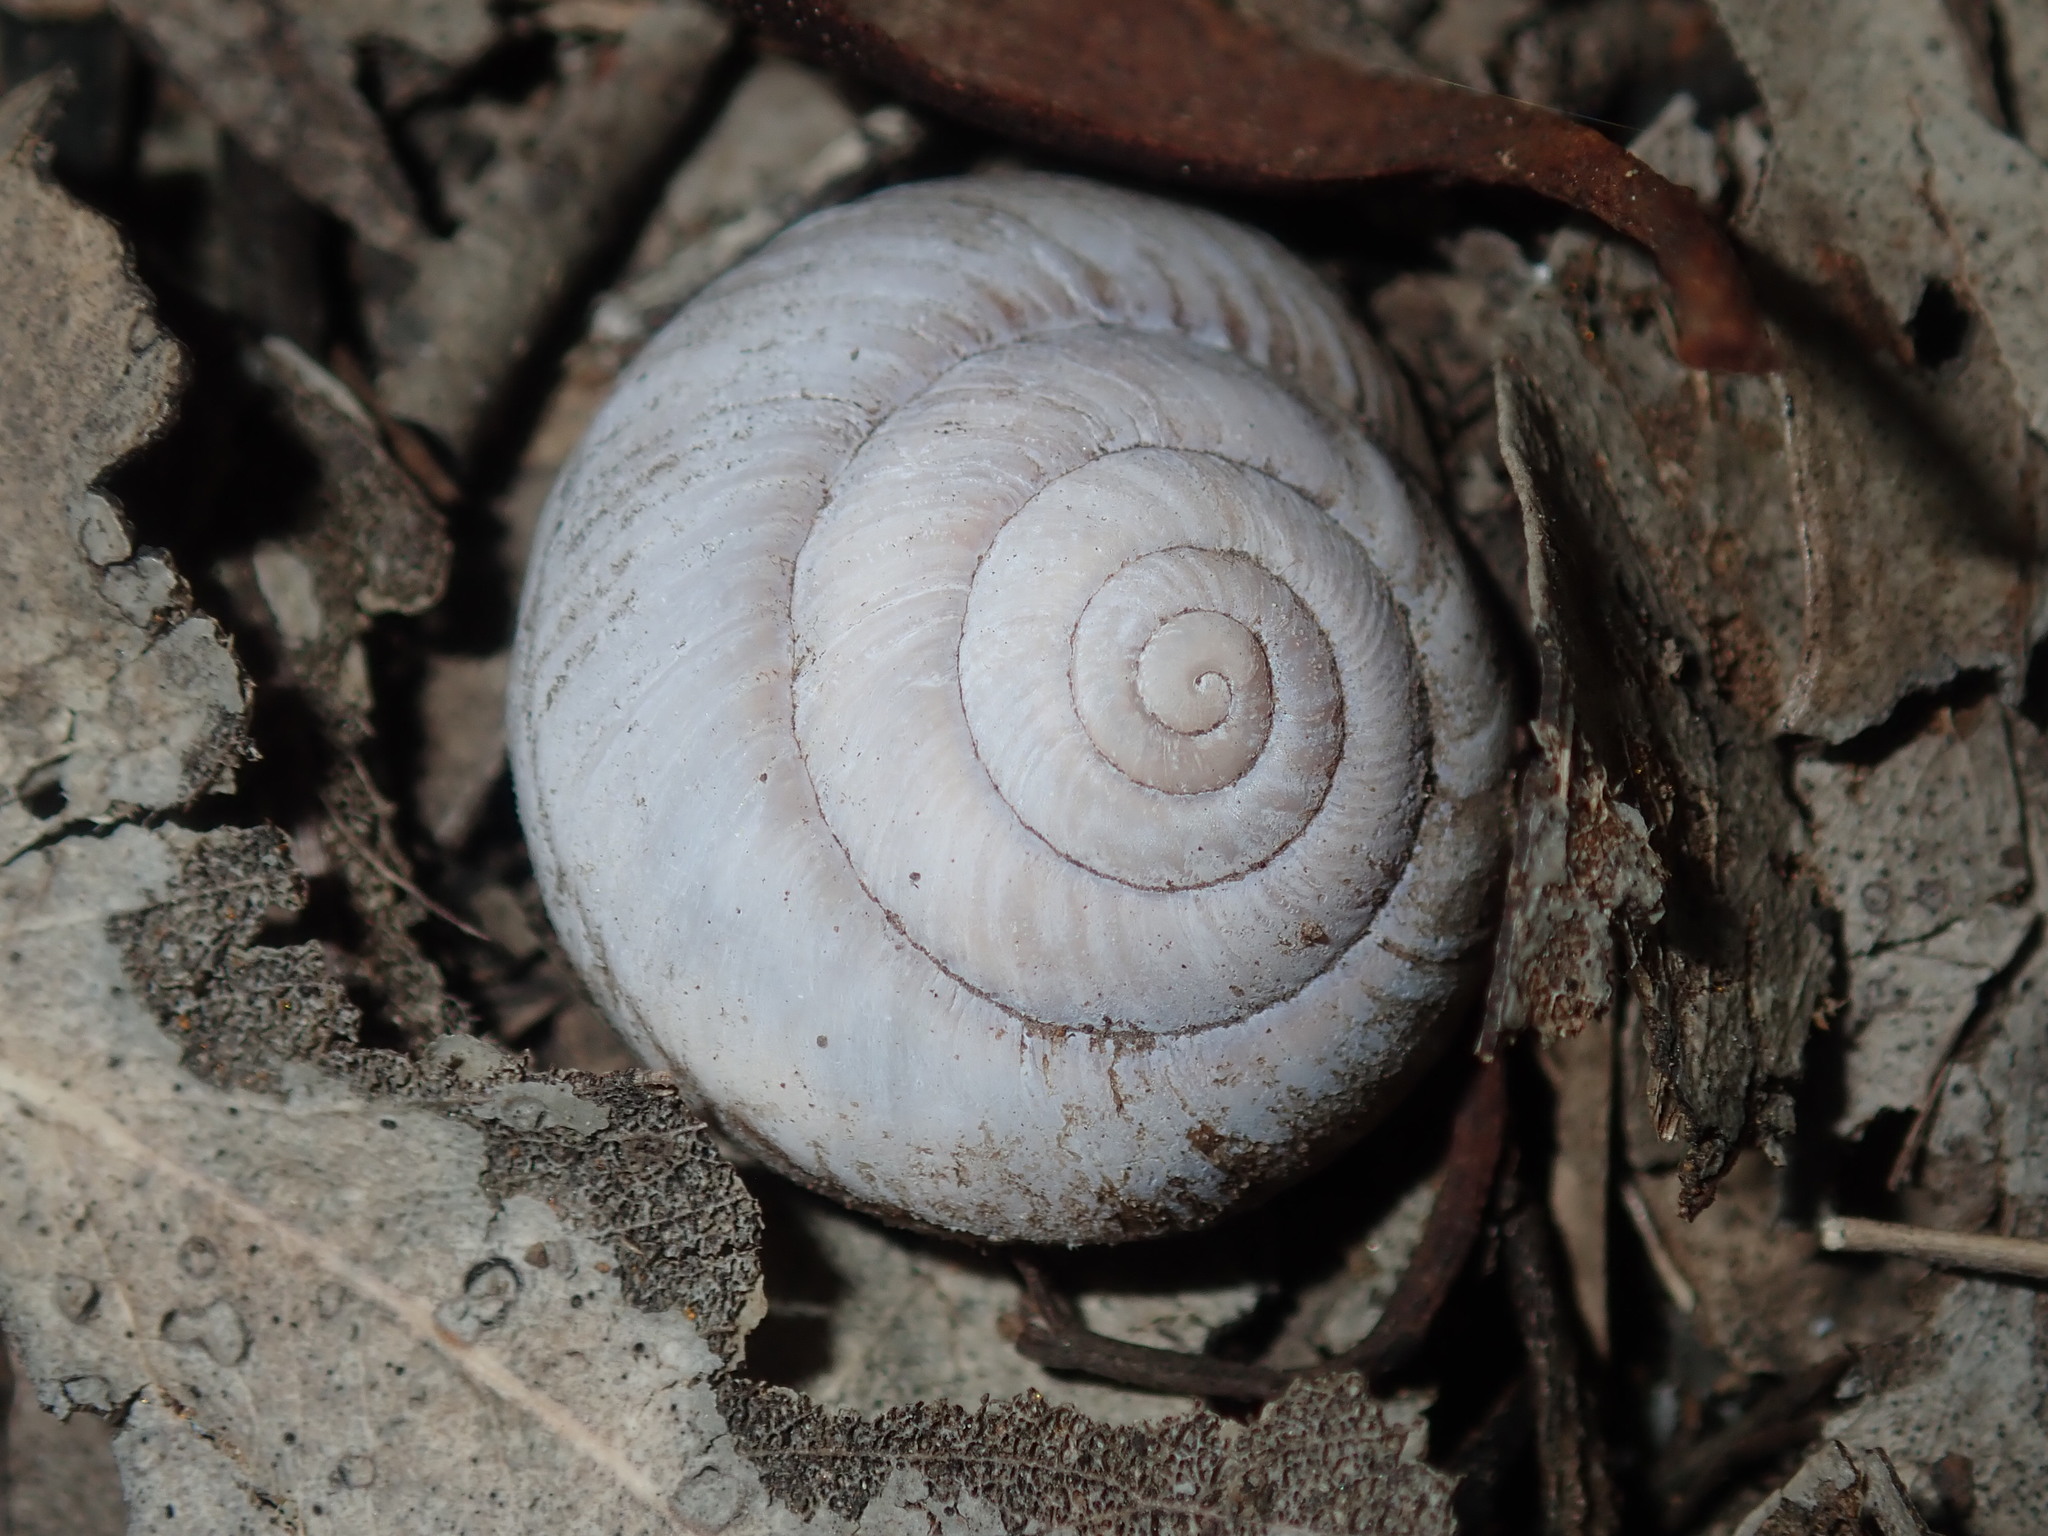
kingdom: Animalia
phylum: Mollusca
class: Gastropoda
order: Stylommatophora
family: Camaenidae
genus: Sauroconcha
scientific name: Sauroconcha sheai
